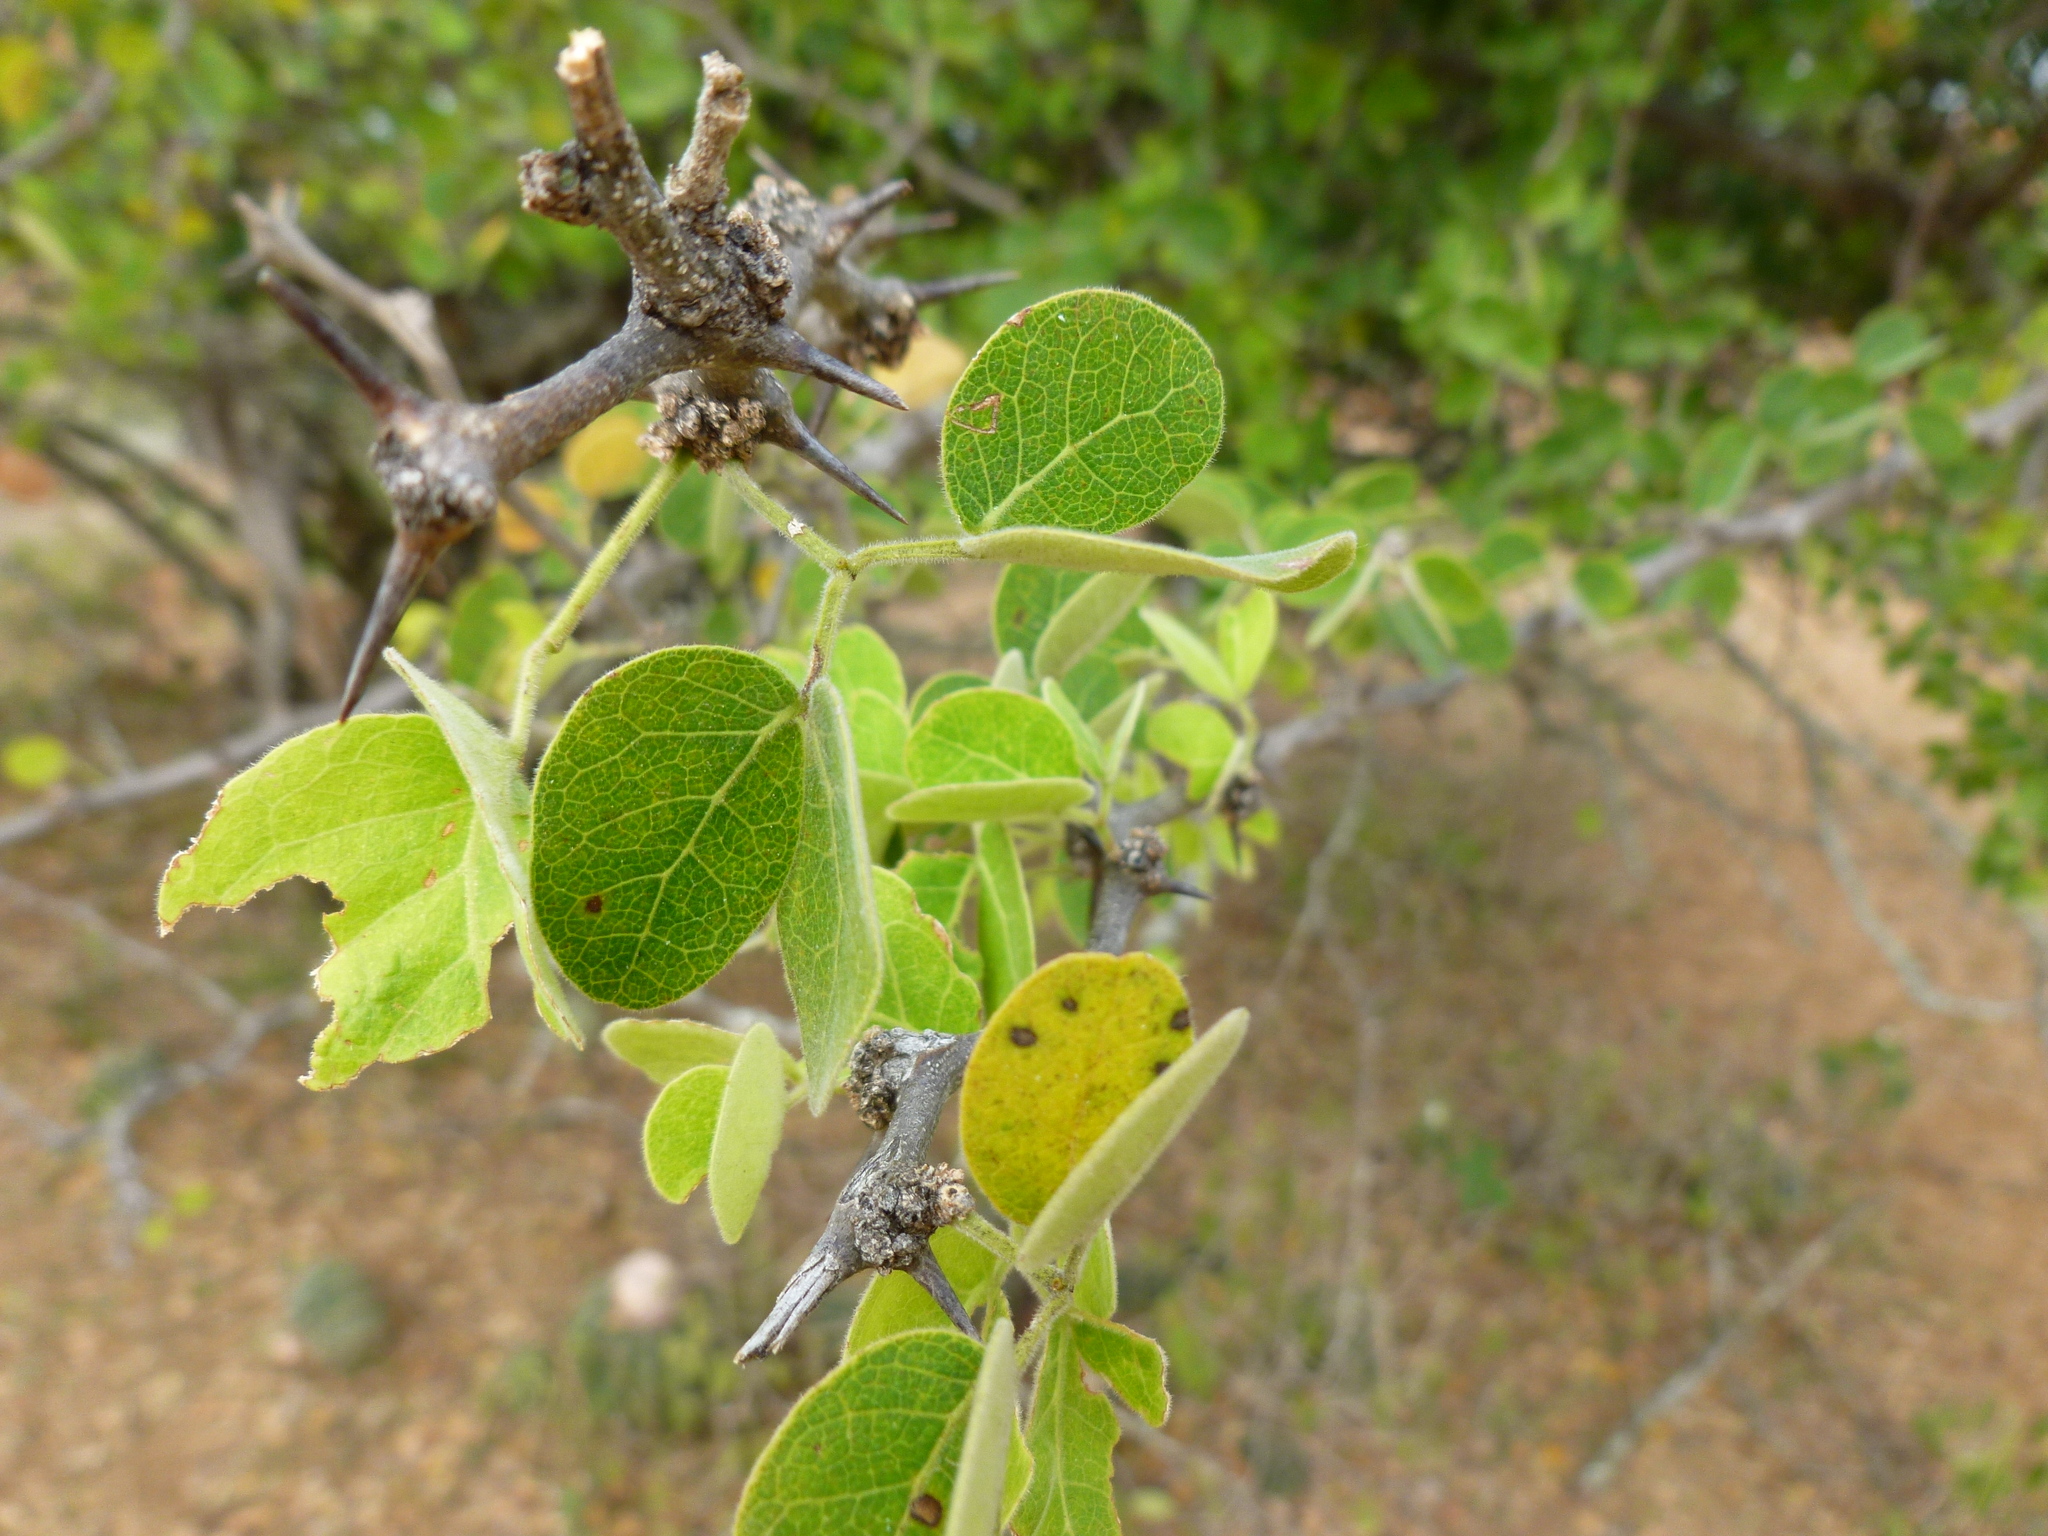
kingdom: Plantae
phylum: Tracheophyta
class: Magnoliopsida
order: Fabales
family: Fabaceae
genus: Pithecellobium
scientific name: Pithecellobium dulce
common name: Monkeypod
